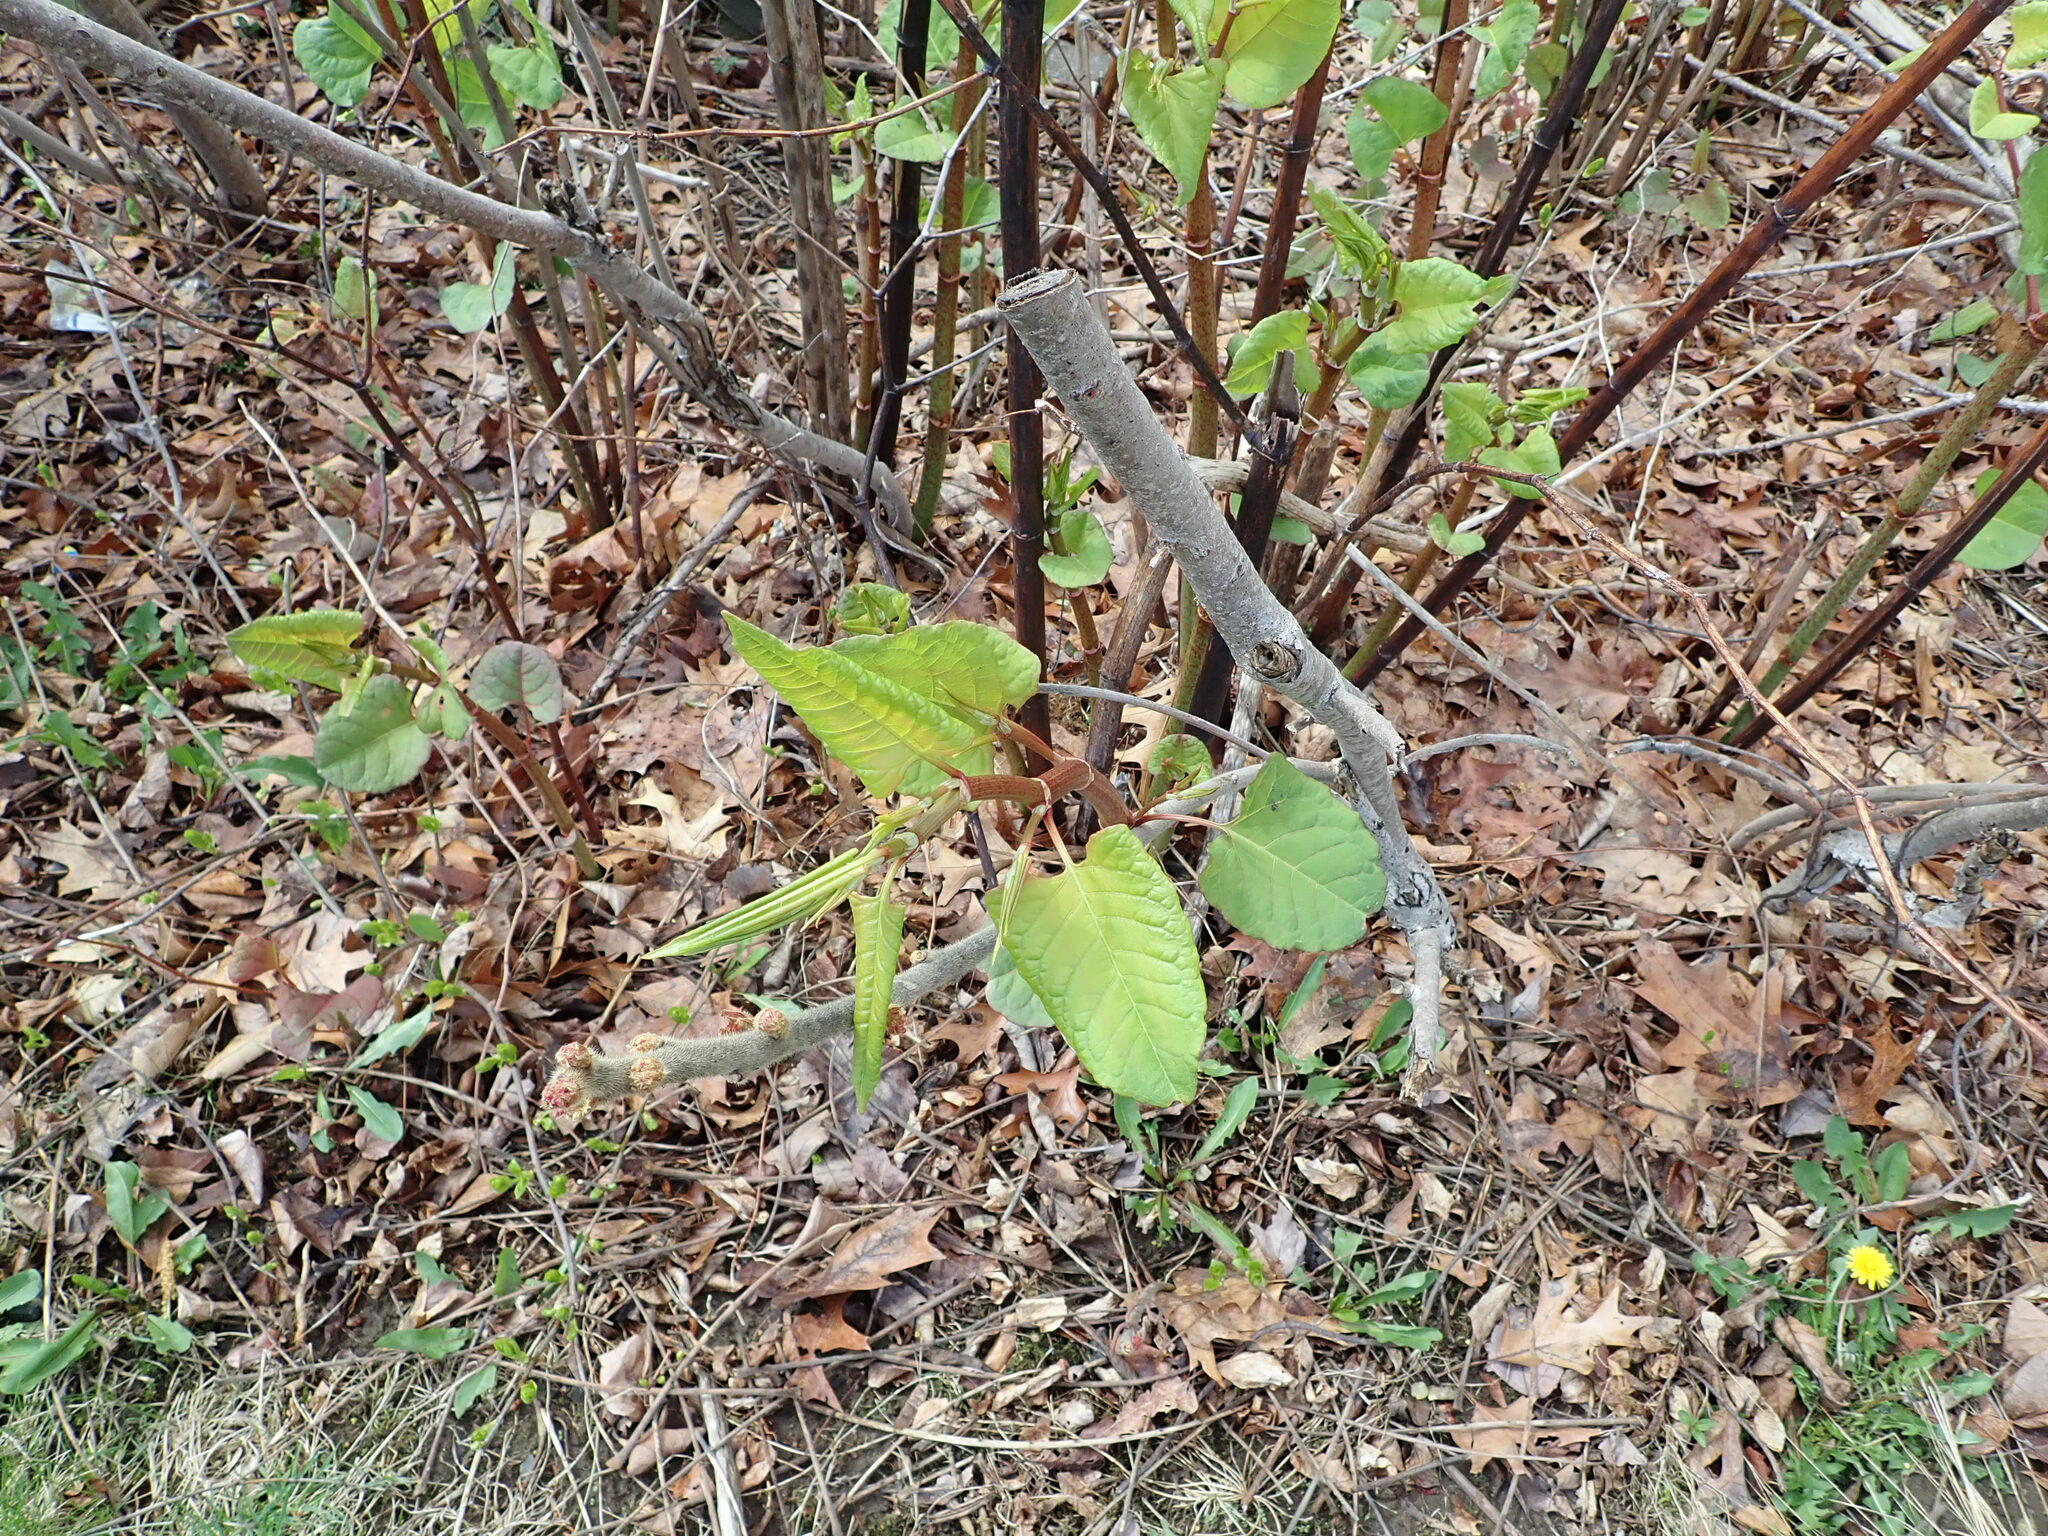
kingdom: Plantae
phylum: Tracheophyta
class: Magnoliopsida
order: Caryophyllales
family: Polygonaceae
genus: Reynoutria
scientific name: Reynoutria japonica
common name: Japanese knotweed
